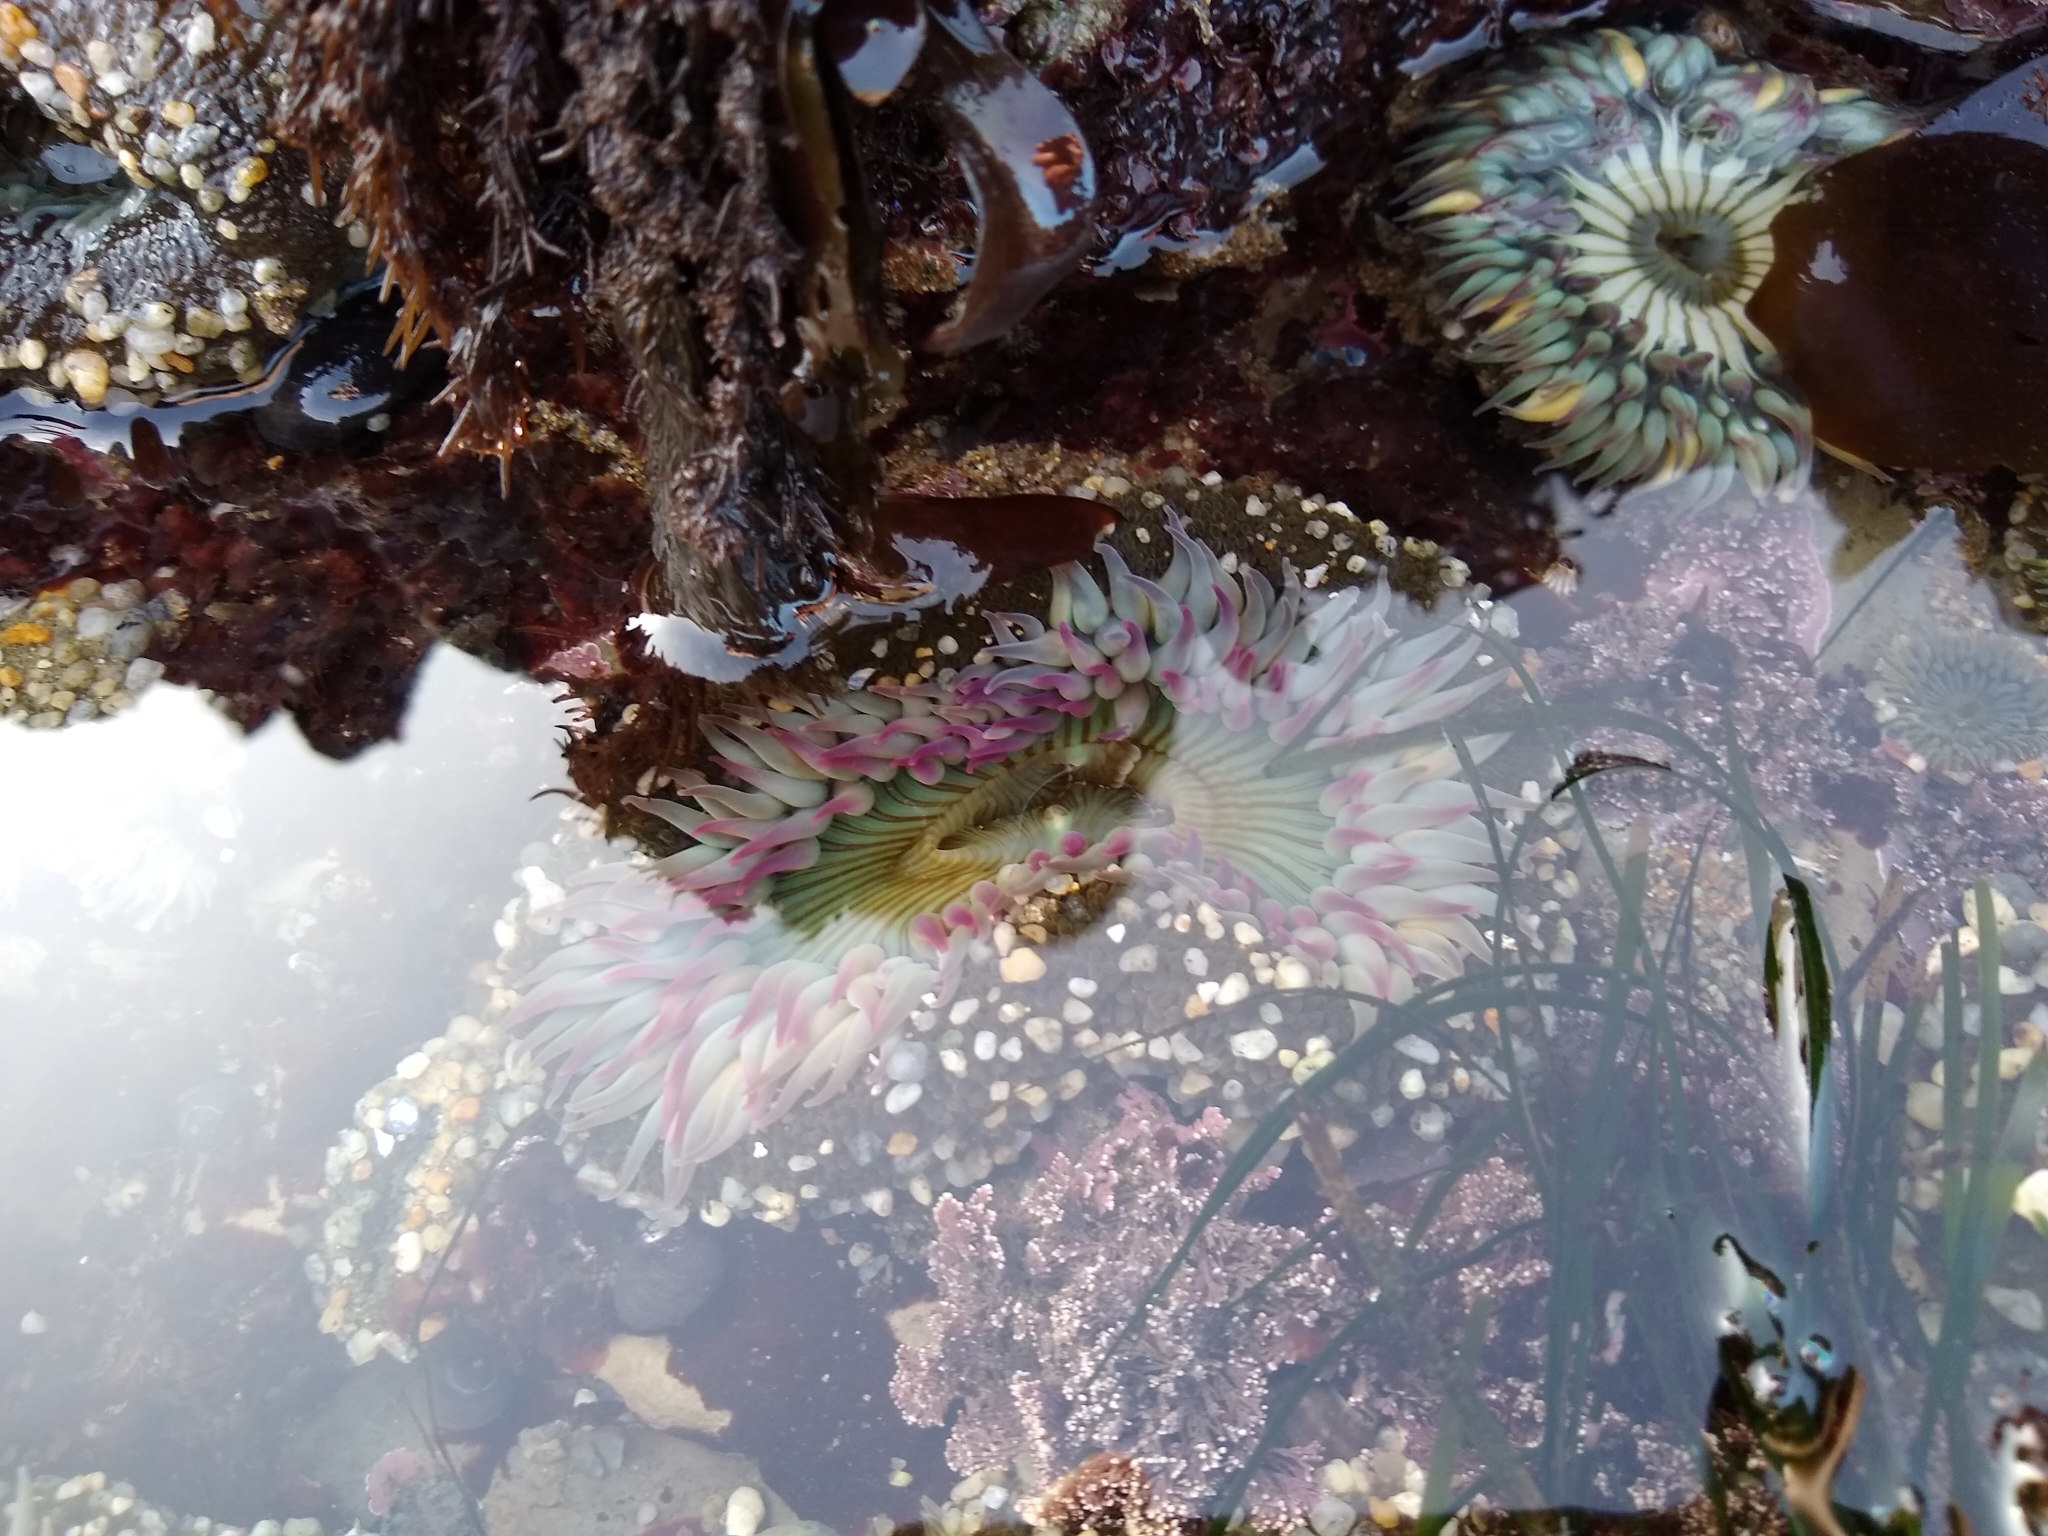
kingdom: Animalia
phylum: Cnidaria
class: Anthozoa
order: Actiniaria
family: Actiniidae
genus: Anthopleura
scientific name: Anthopleura sola
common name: Sun anemone
